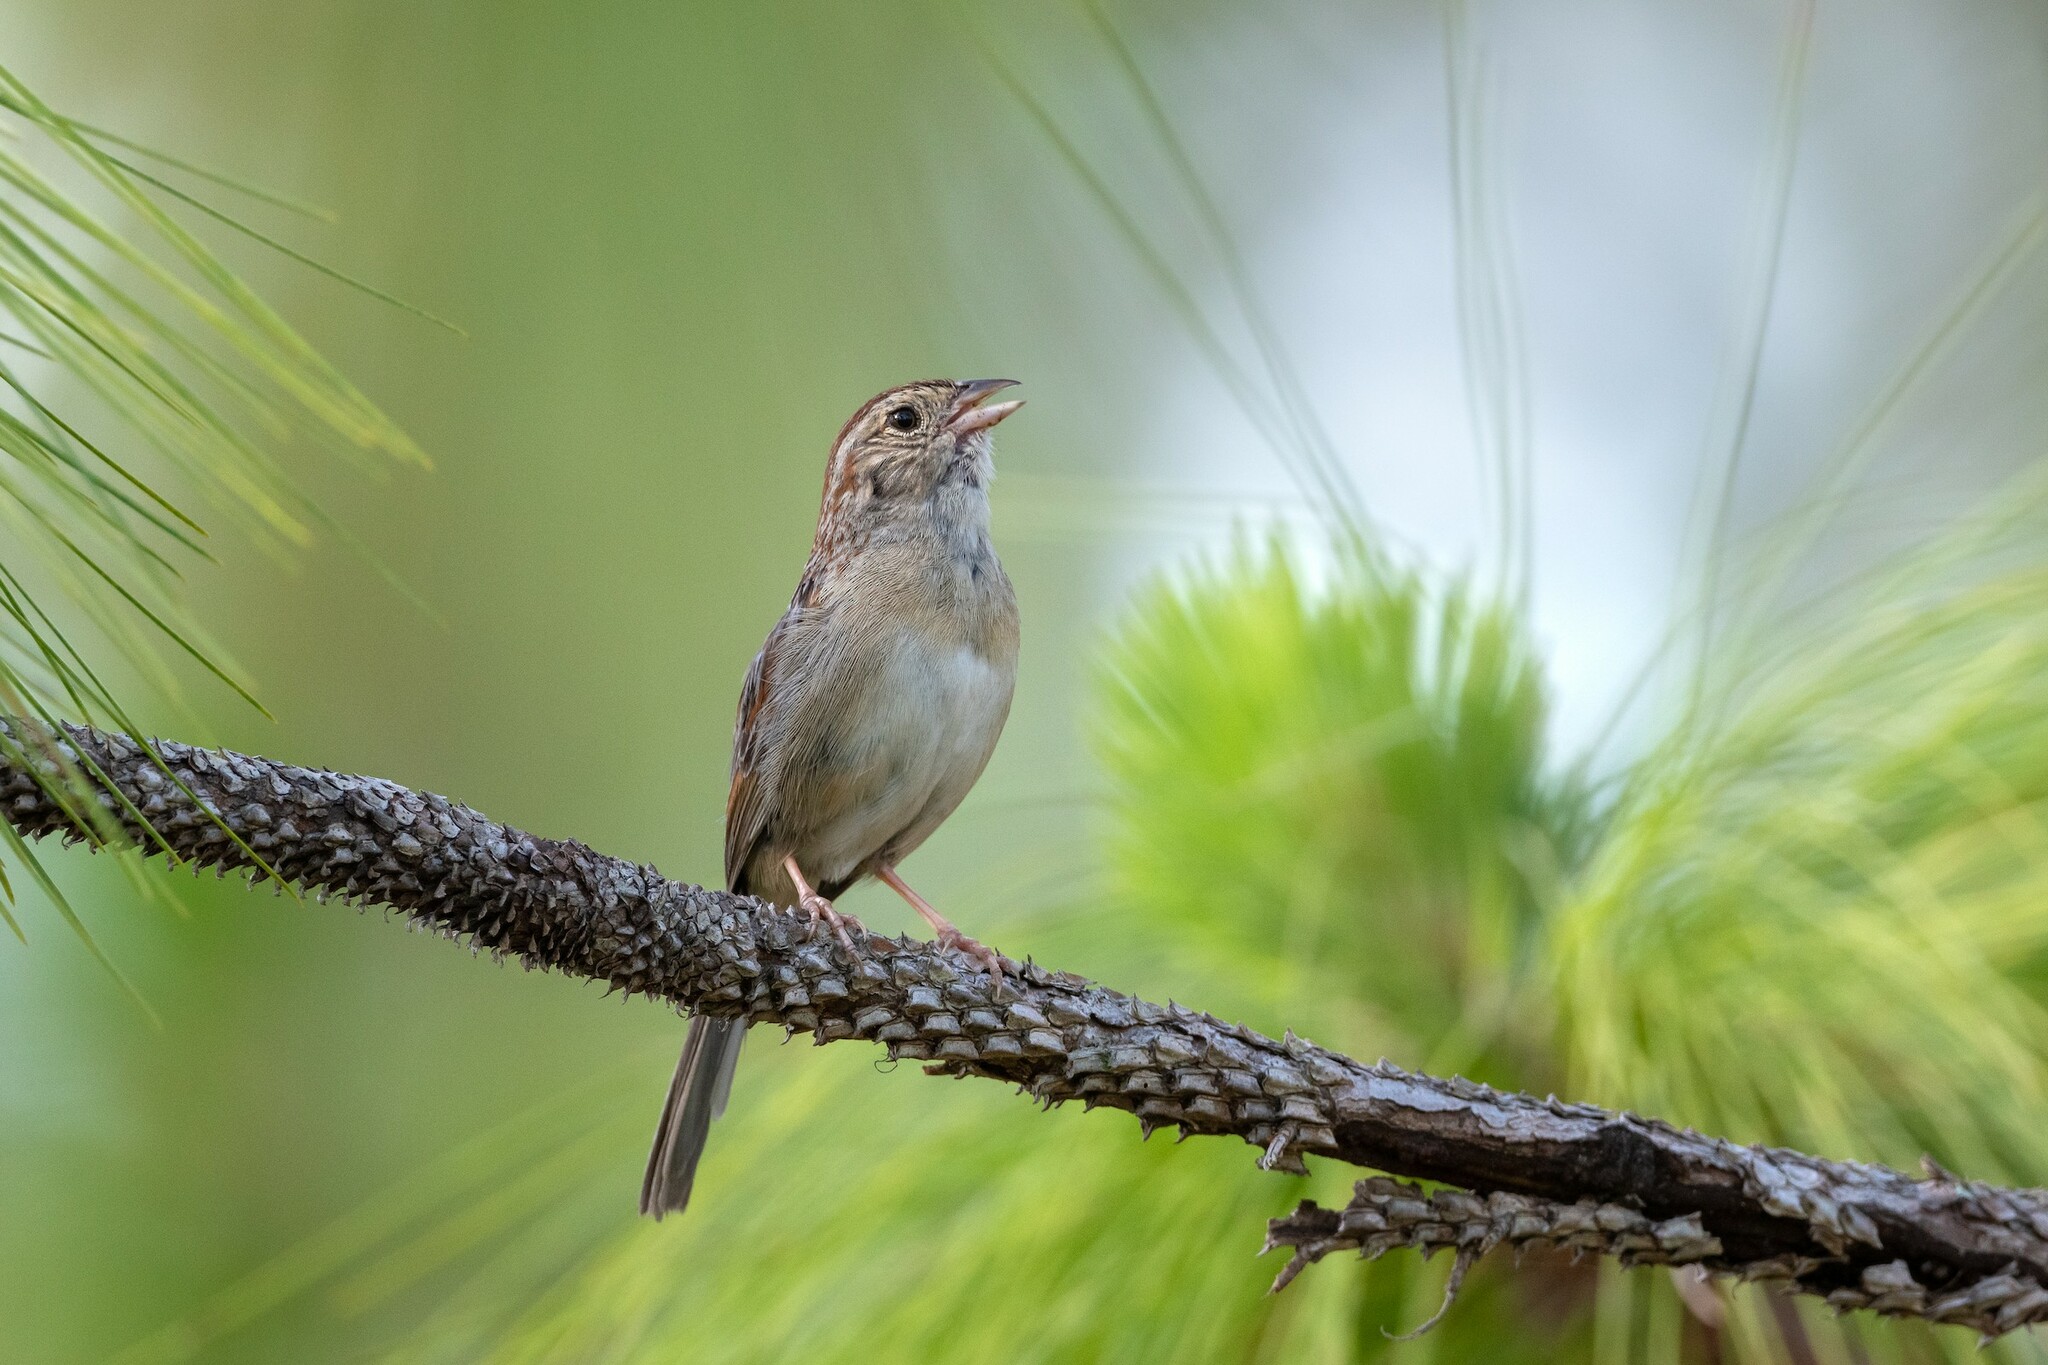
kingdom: Animalia
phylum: Chordata
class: Aves
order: Passeriformes
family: Passerellidae
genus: Peucaea
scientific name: Peucaea aestivalis
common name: Bachman's sparrow
